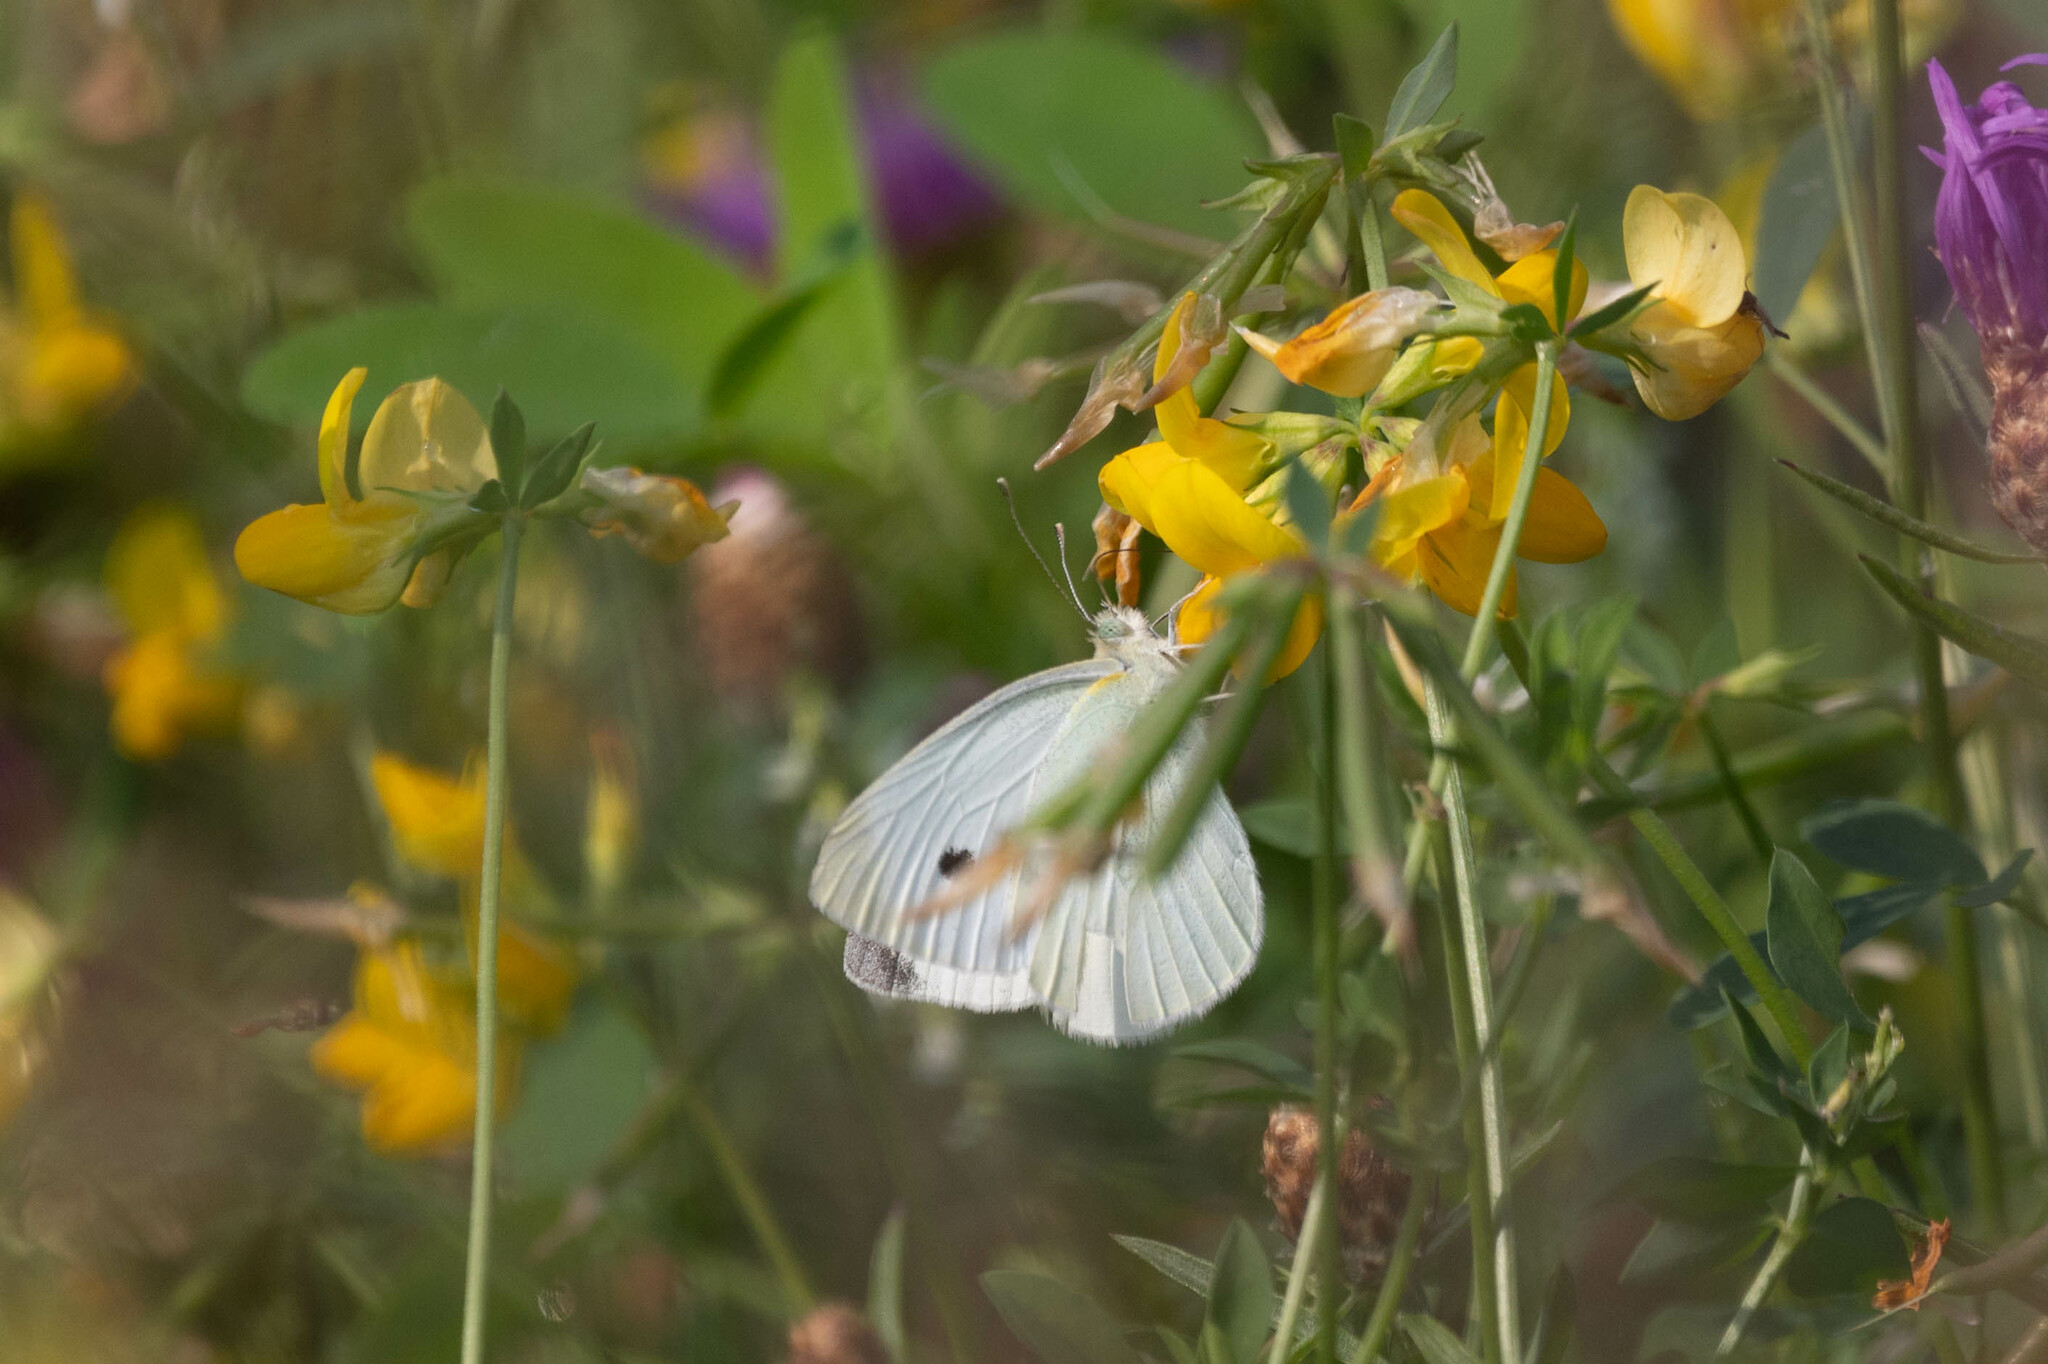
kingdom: Animalia
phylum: Arthropoda
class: Insecta
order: Lepidoptera
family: Pieridae
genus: Pieris
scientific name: Pieris rapae
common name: Small white
